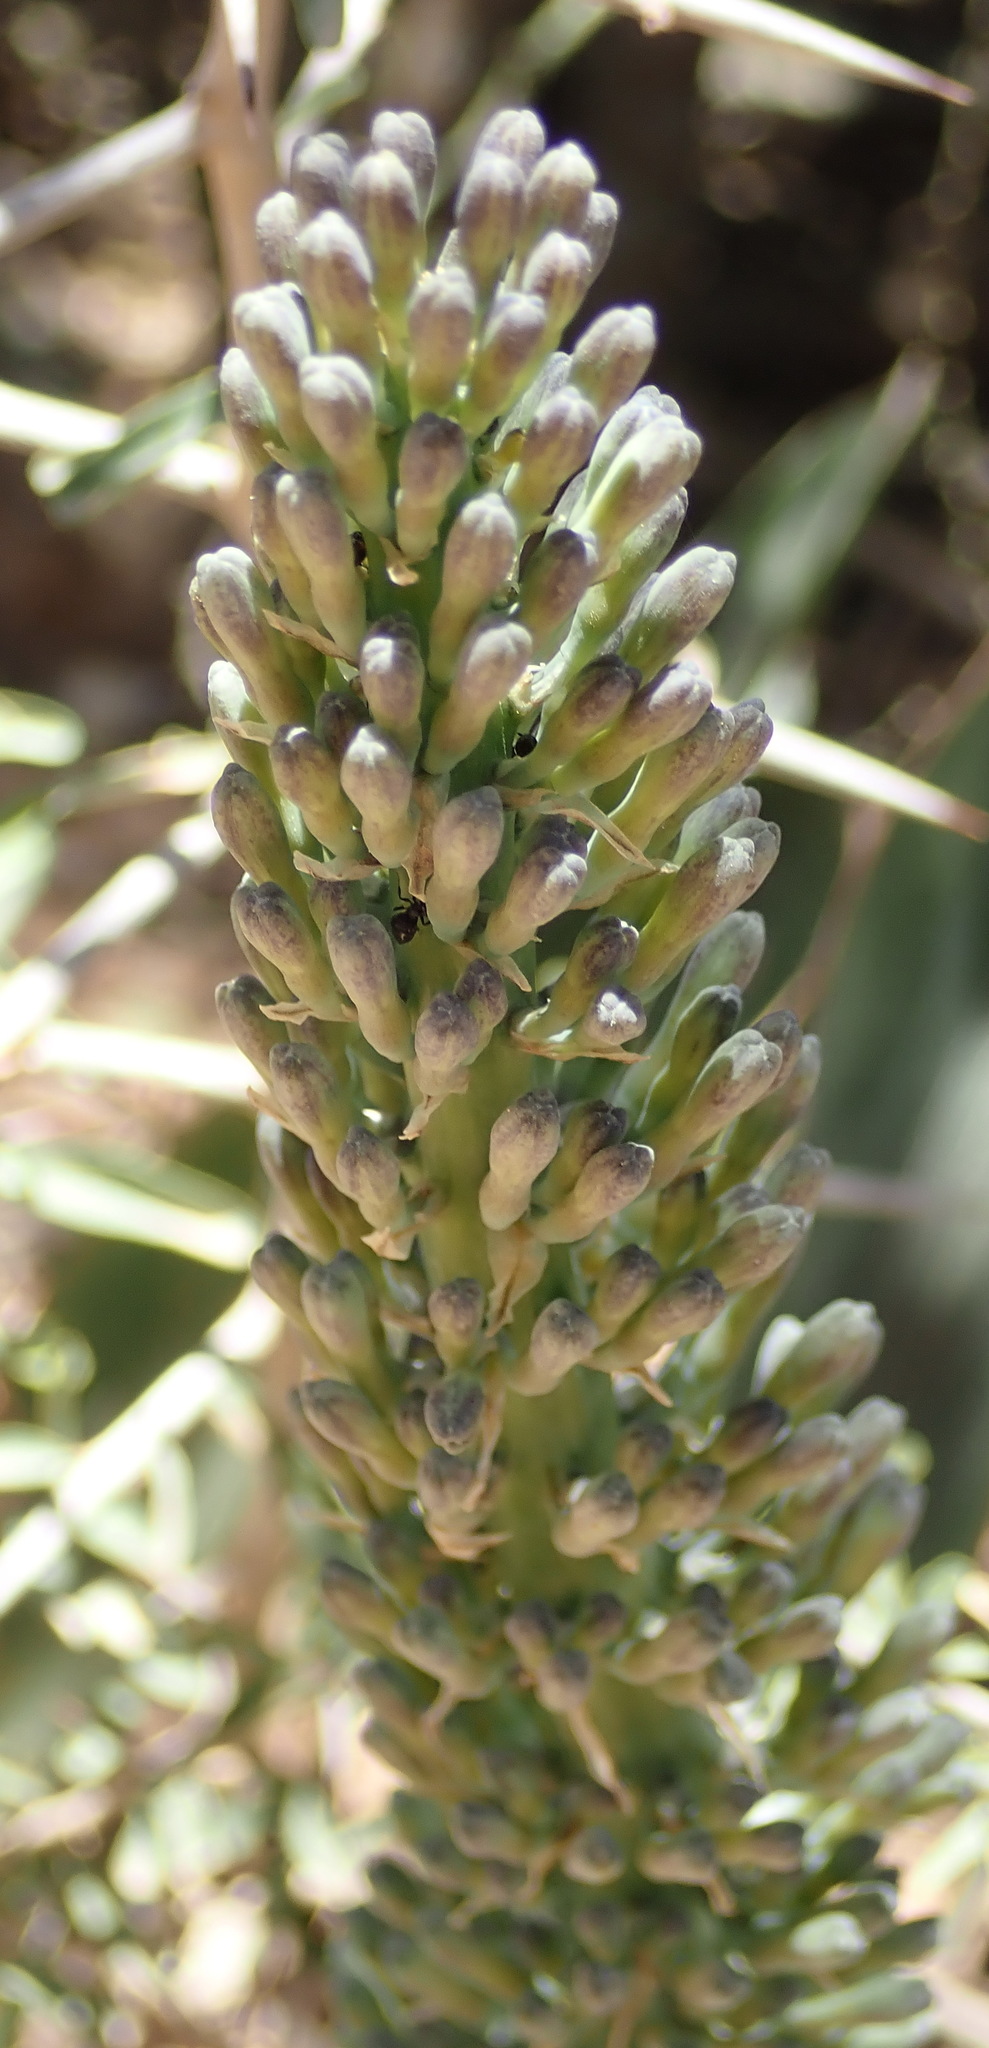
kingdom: Plantae
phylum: Tracheophyta
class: Liliopsida
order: Asparagales
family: Asparagaceae
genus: Dracaena
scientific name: Dracaena hyacinthoides
